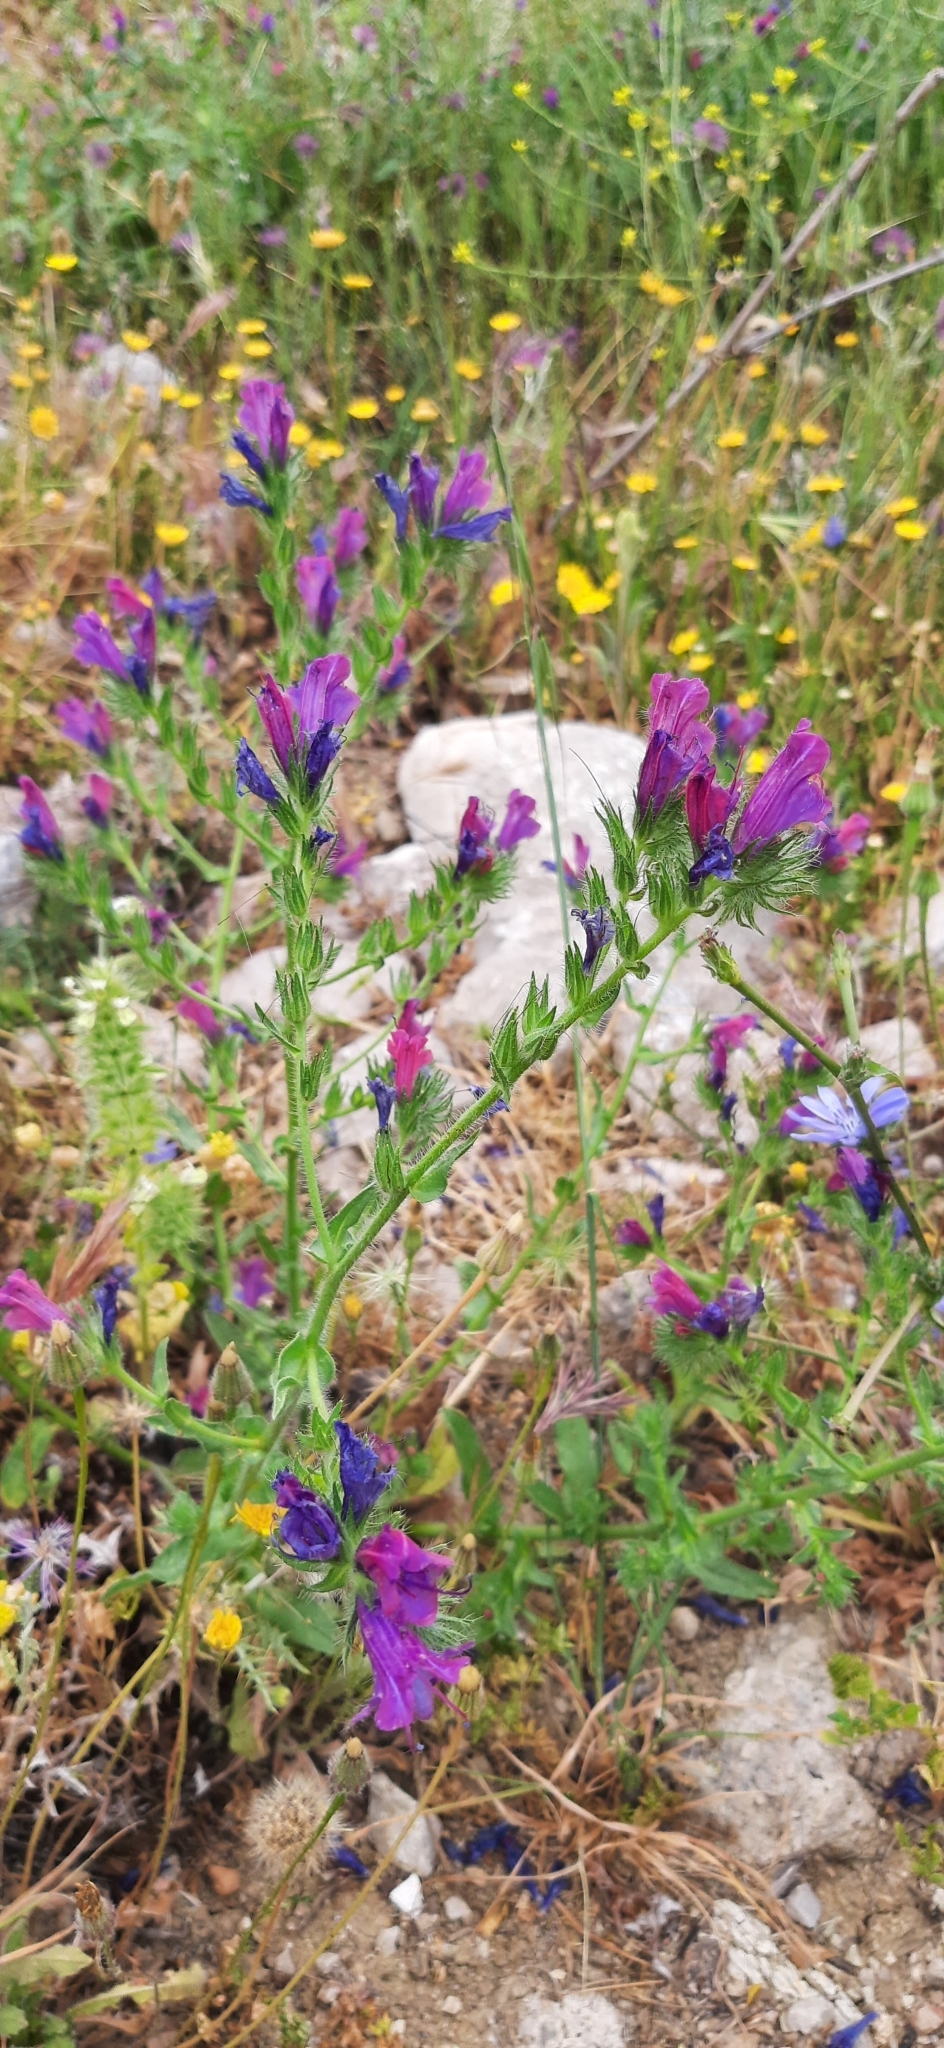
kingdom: Plantae
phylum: Tracheophyta
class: Magnoliopsida
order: Boraginales
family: Boraginaceae
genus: Echium
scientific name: Echium plantagineum
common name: Purple viper's-bugloss
